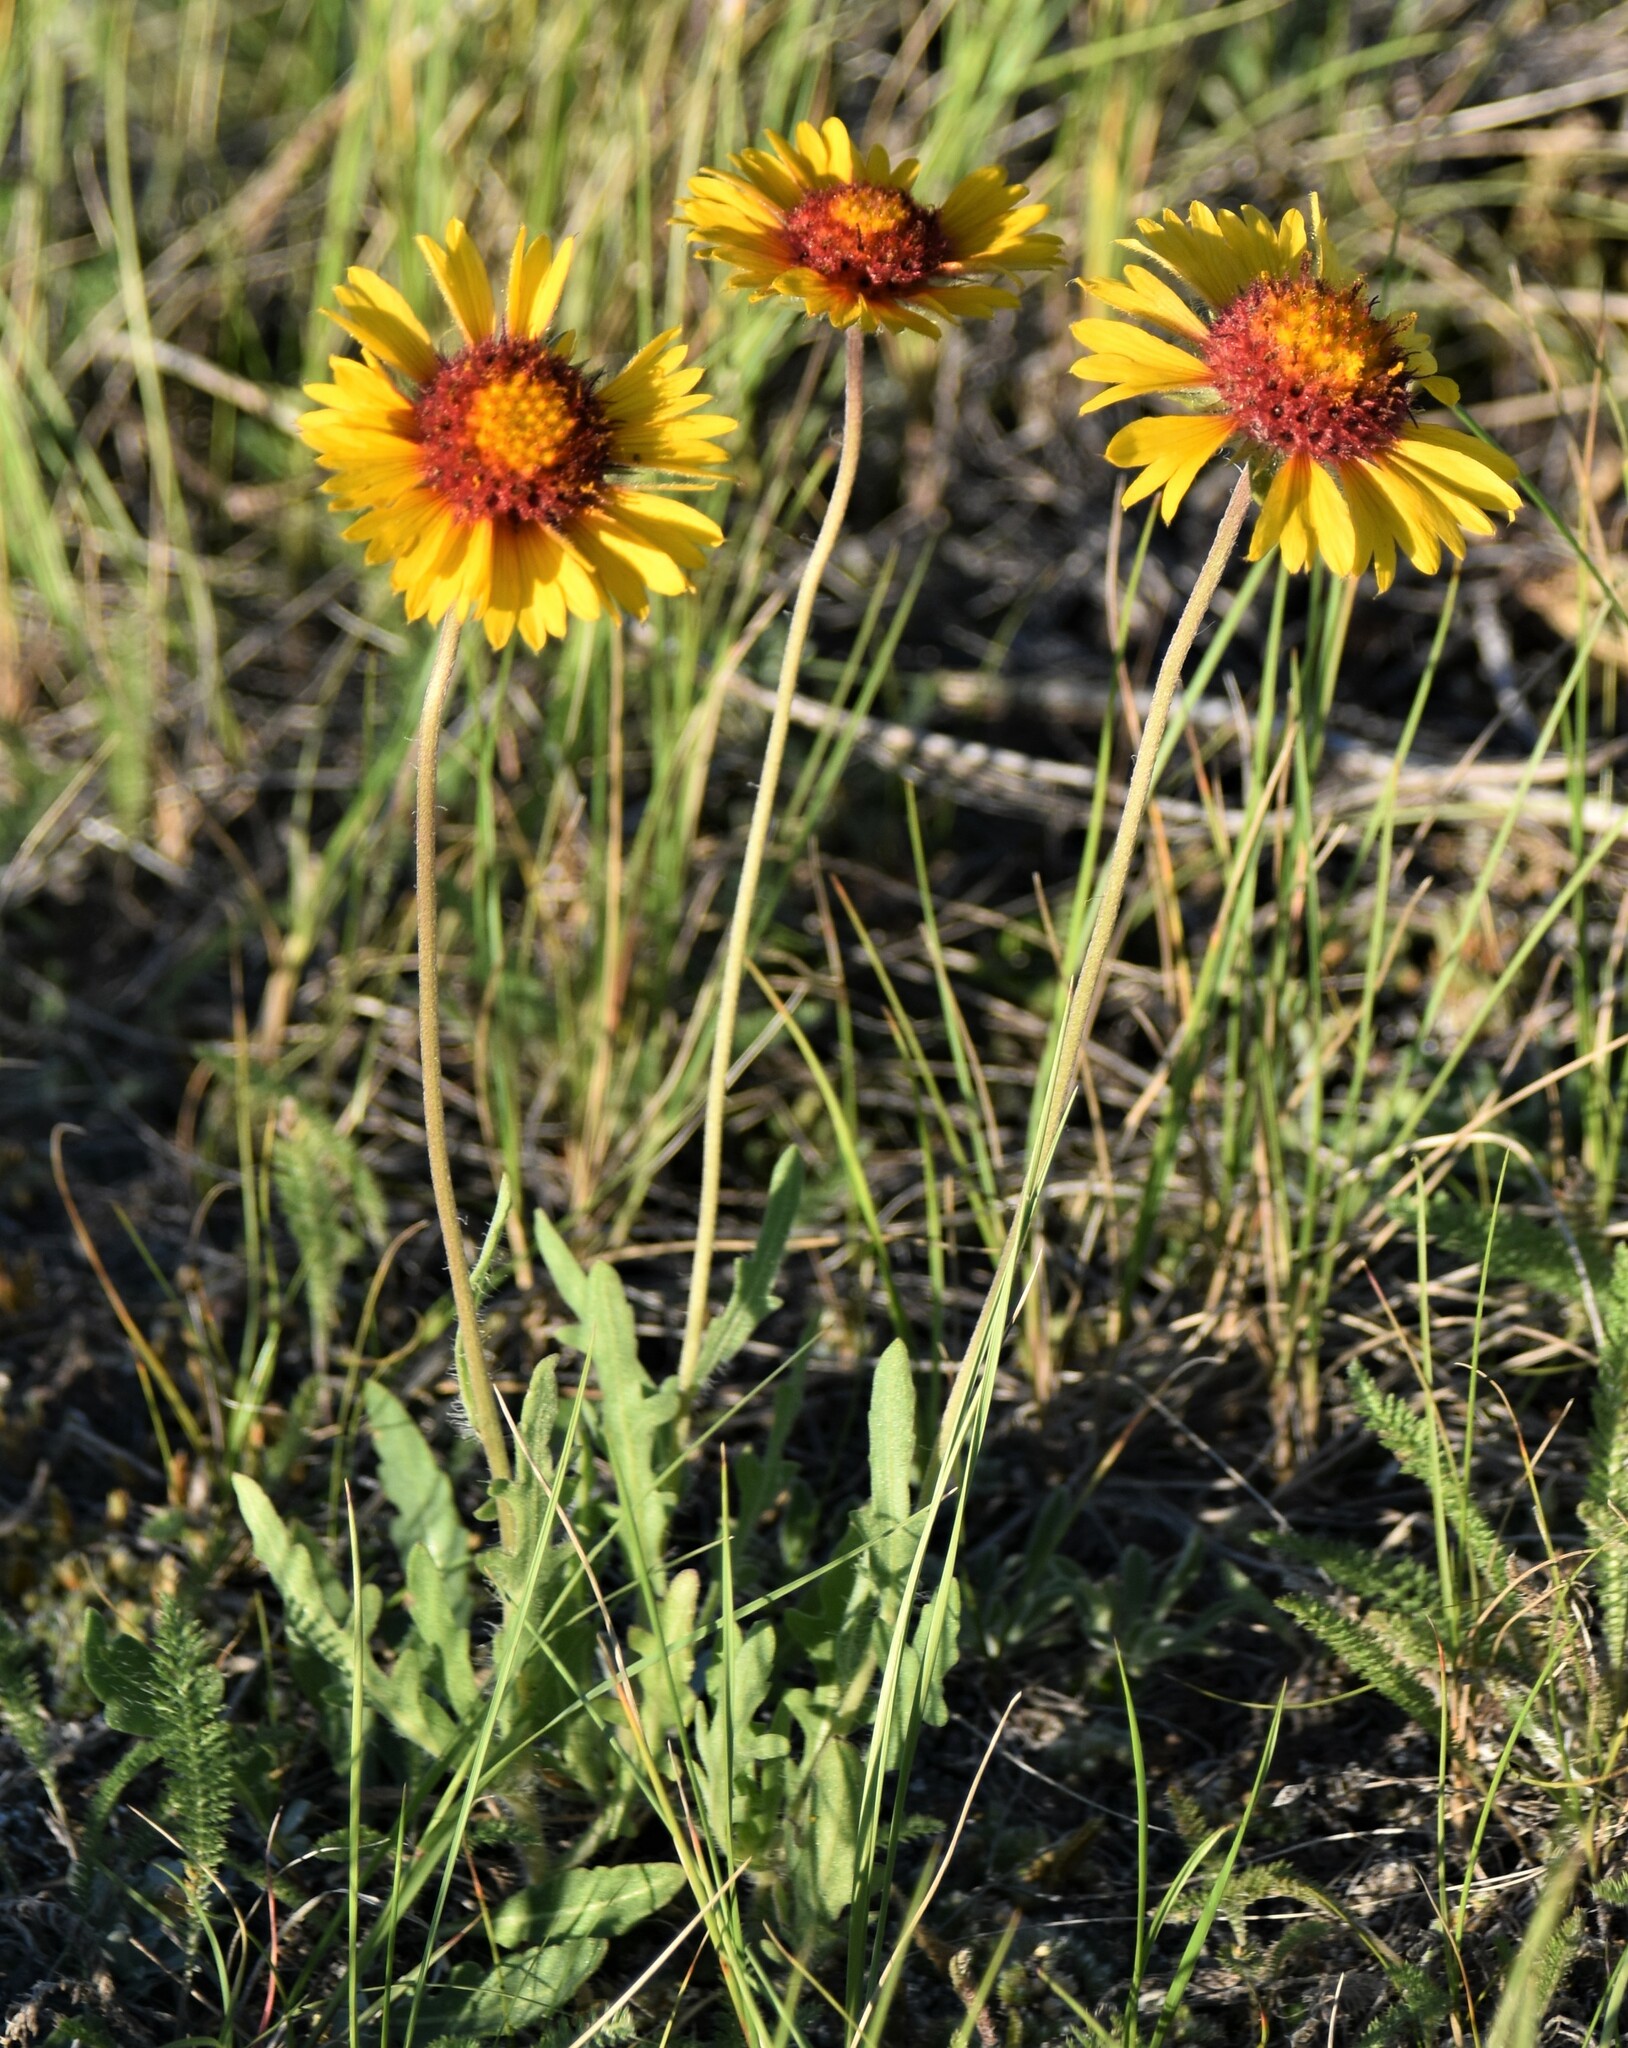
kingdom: Plantae
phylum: Tracheophyta
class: Magnoliopsida
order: Asterales
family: Asteraceae
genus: Gaillardia
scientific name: Gaillardia aristata
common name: Blanket-flower
